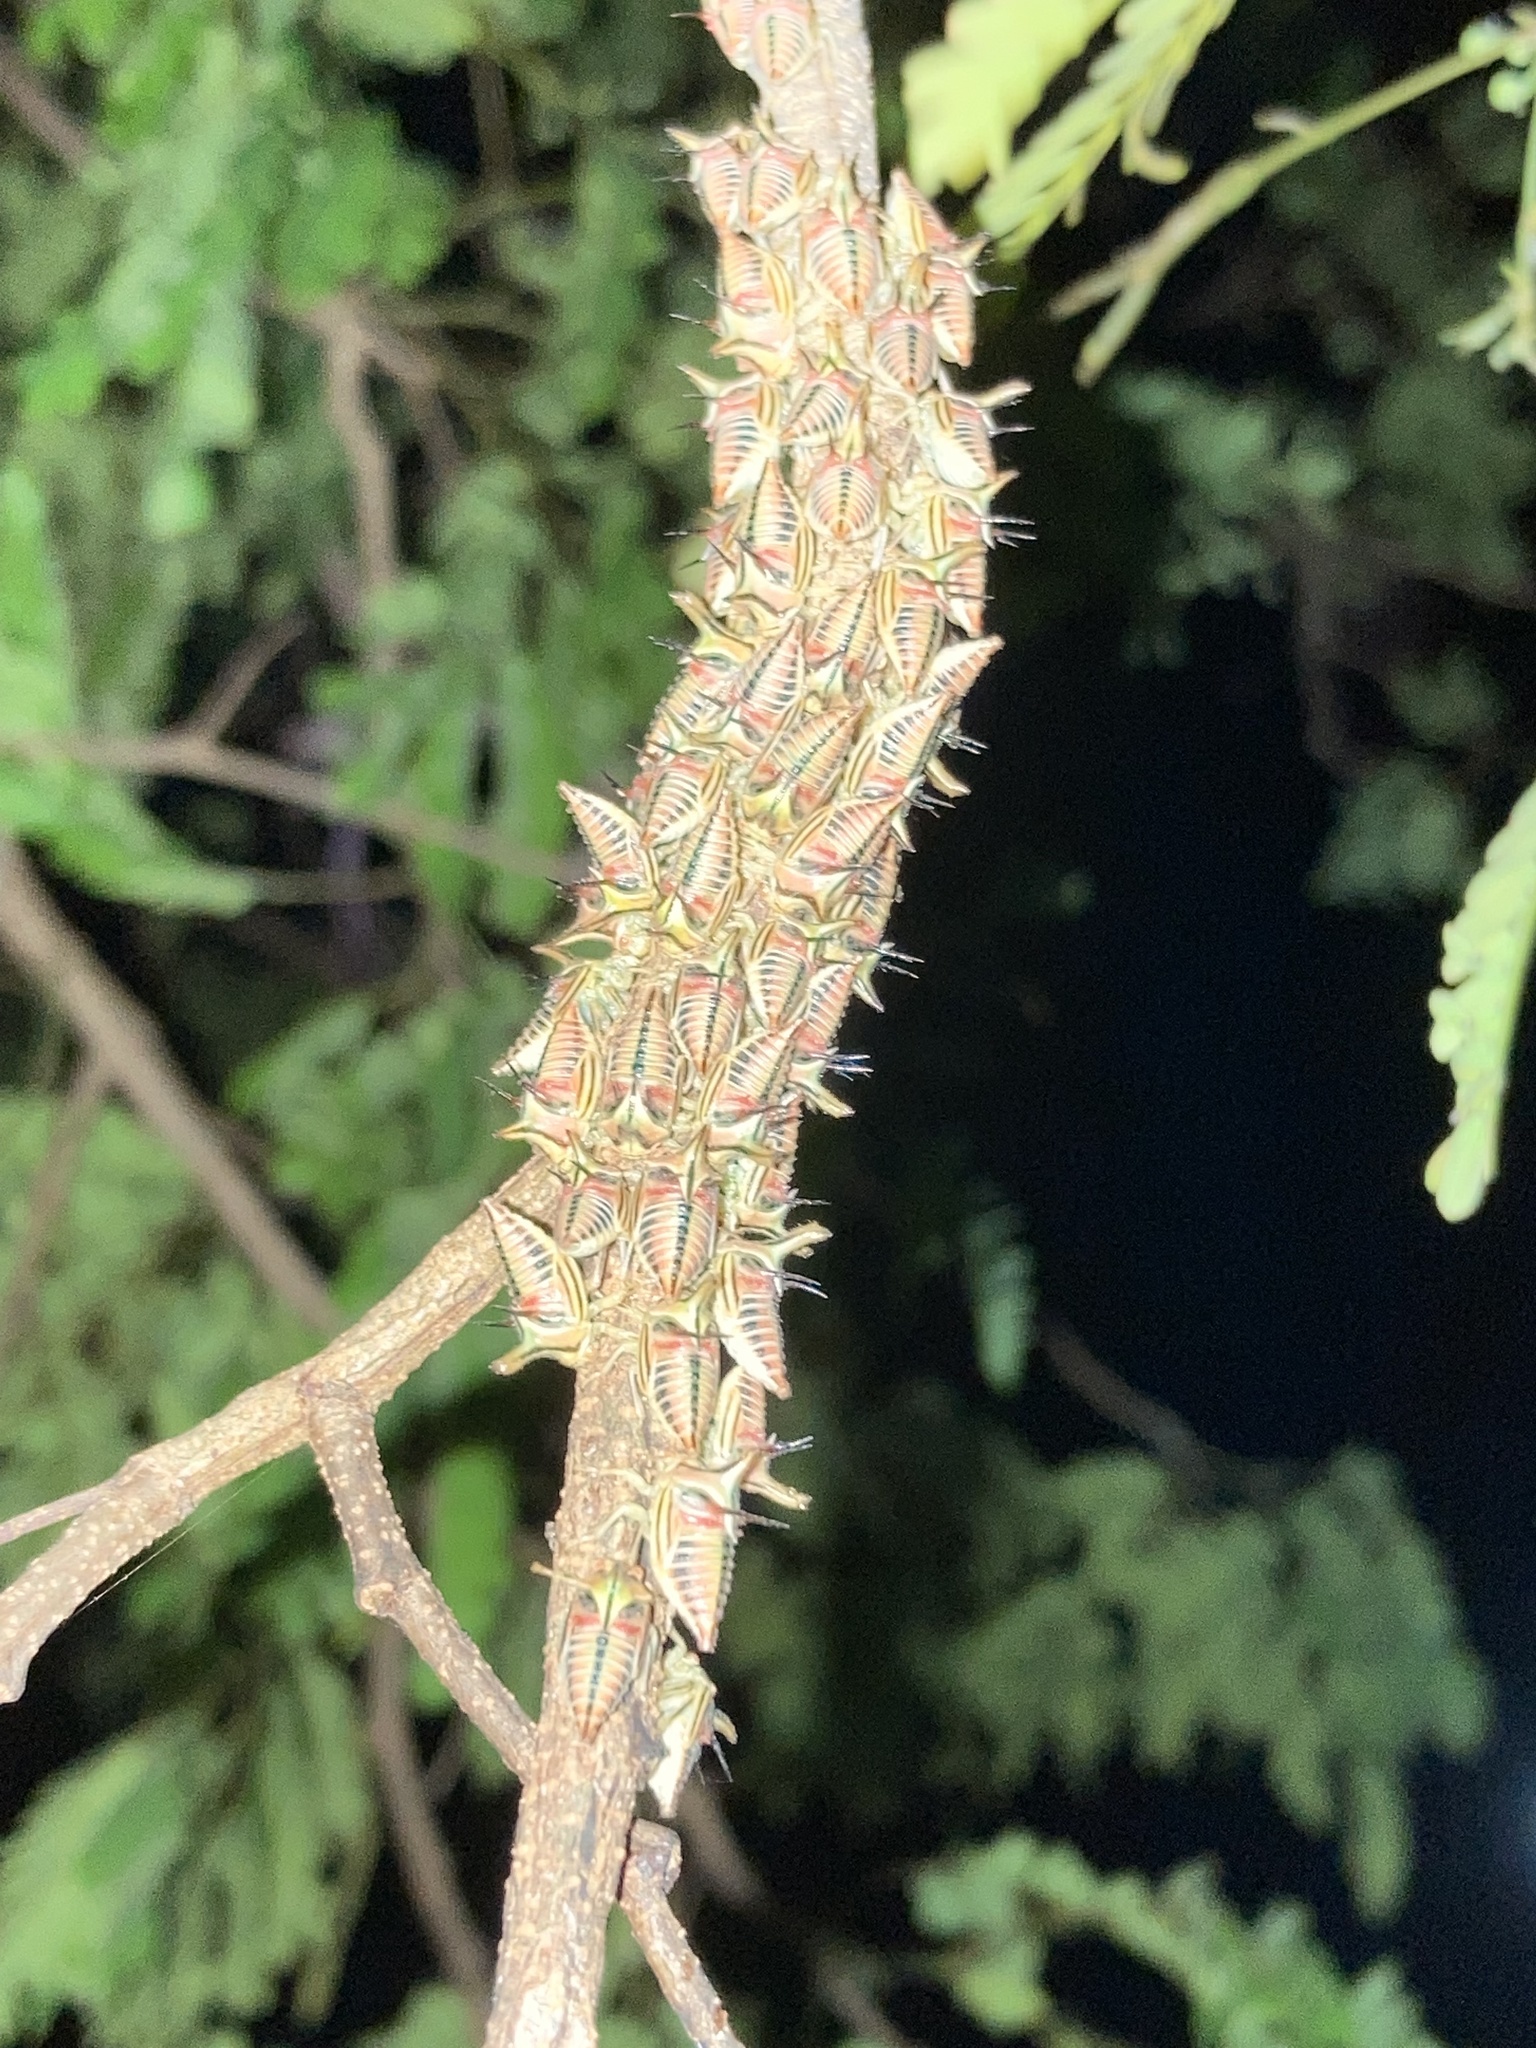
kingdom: Animalia
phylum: Arthropoda
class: Insecta
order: Hemiptera
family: Membracidae
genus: Umbonia
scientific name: Umbonia crassicornis
